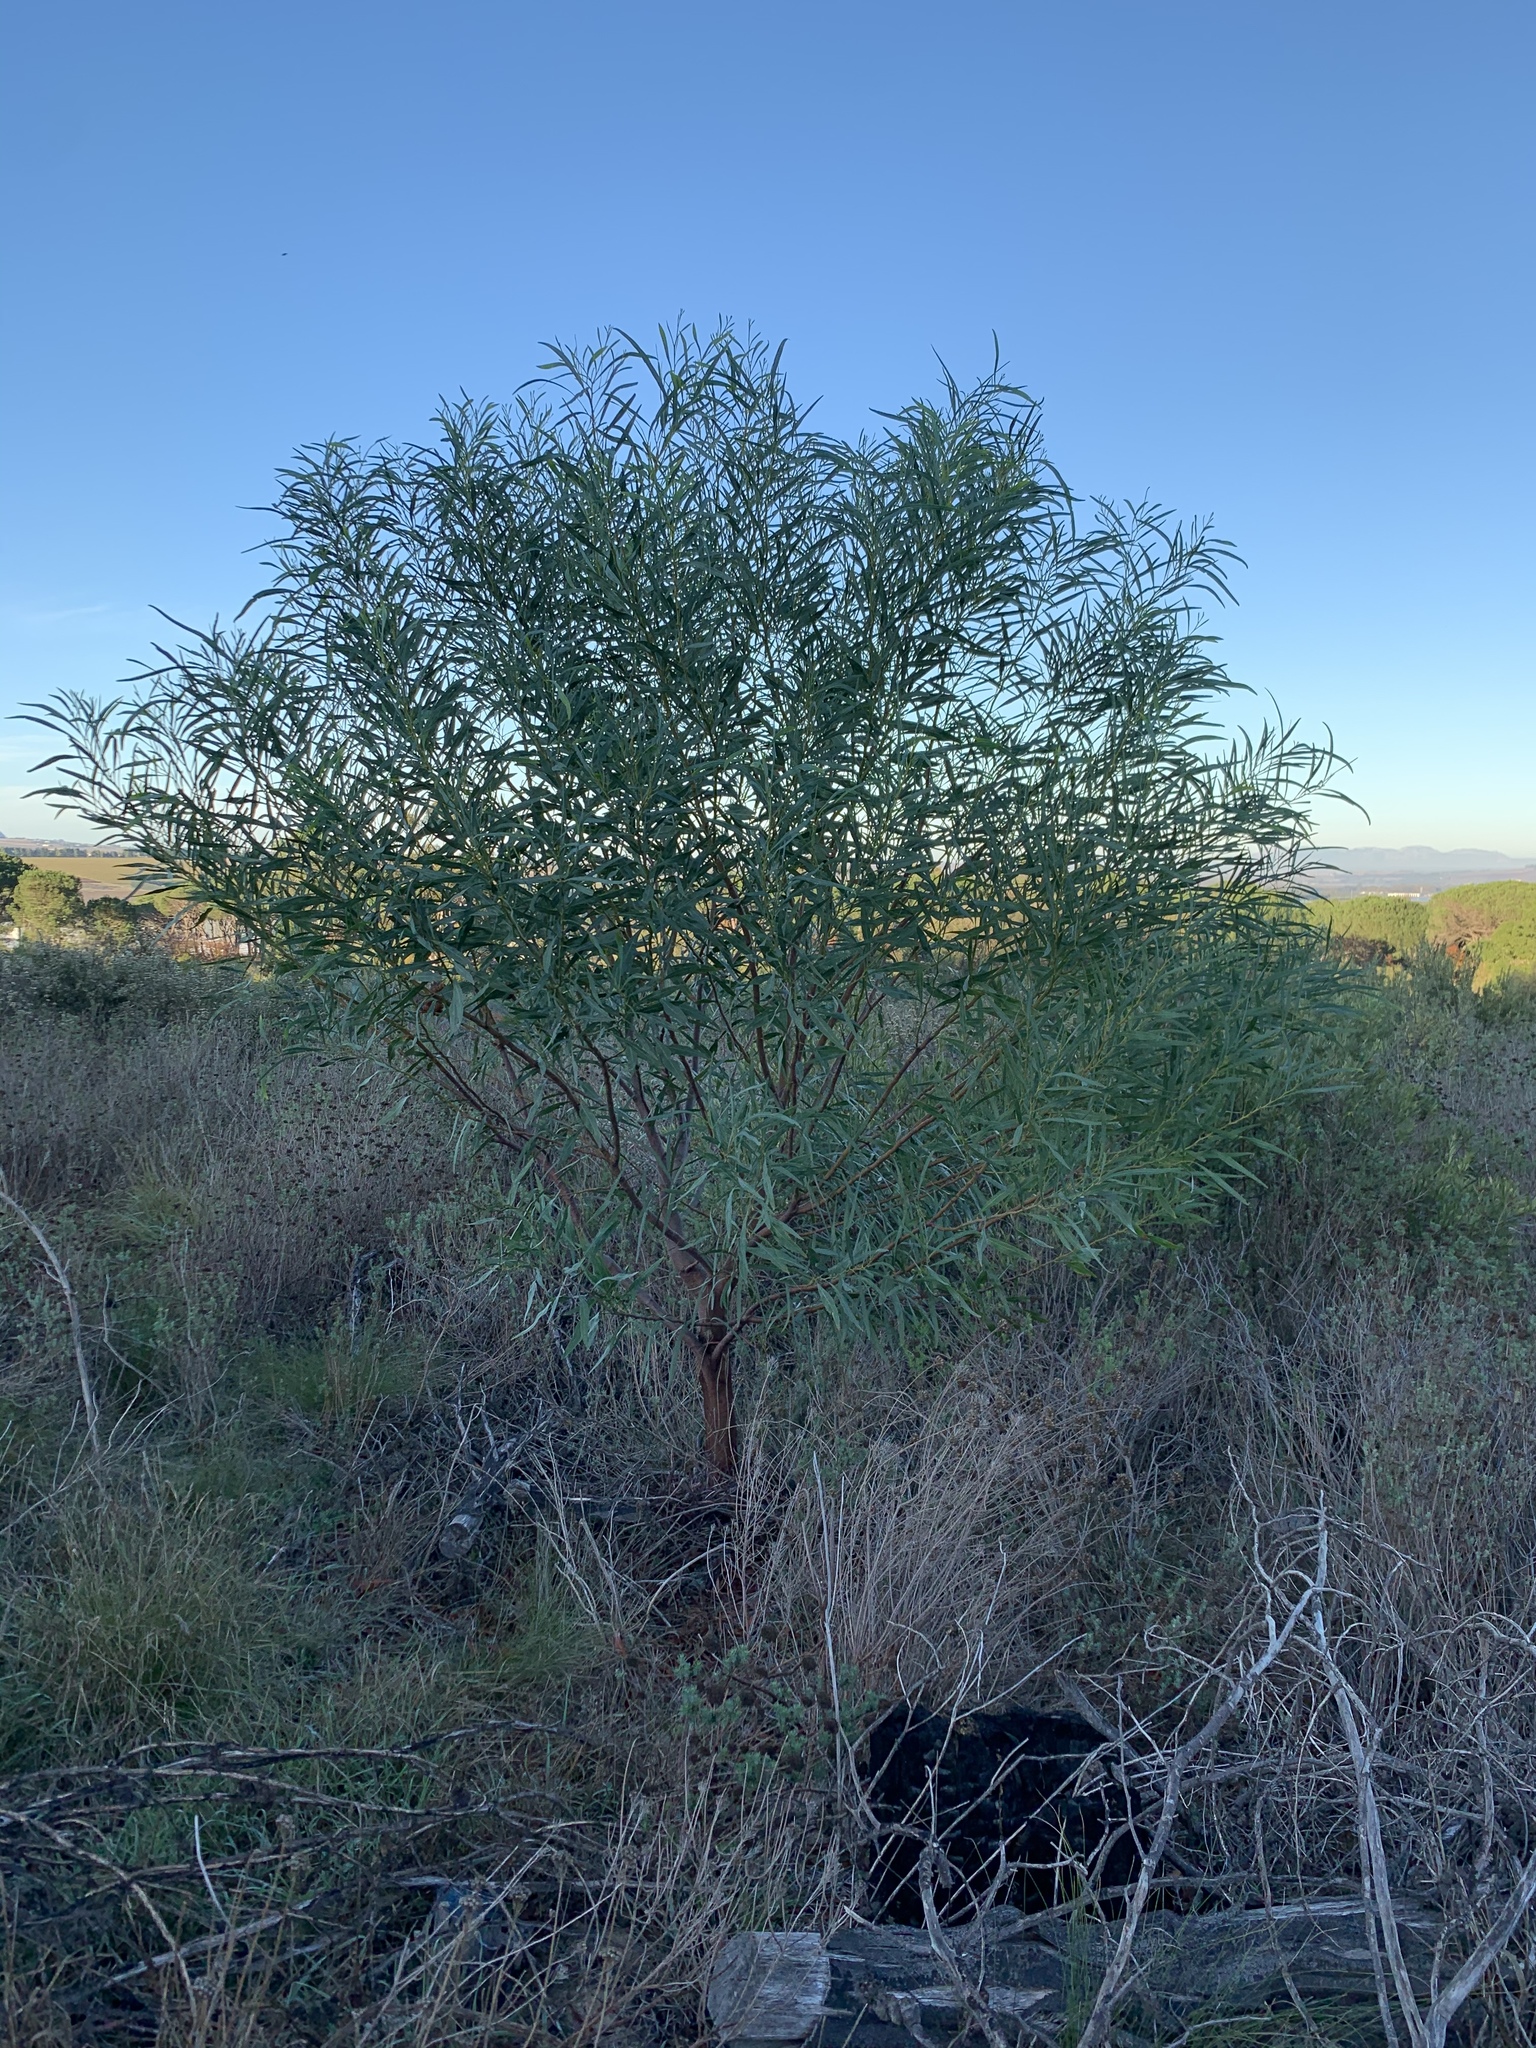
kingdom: Plantae
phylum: Tracheophyta
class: Magnoliopsida
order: Fabales
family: Fabaceae
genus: Acacia
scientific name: Acacia saligna
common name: Orange wattle
